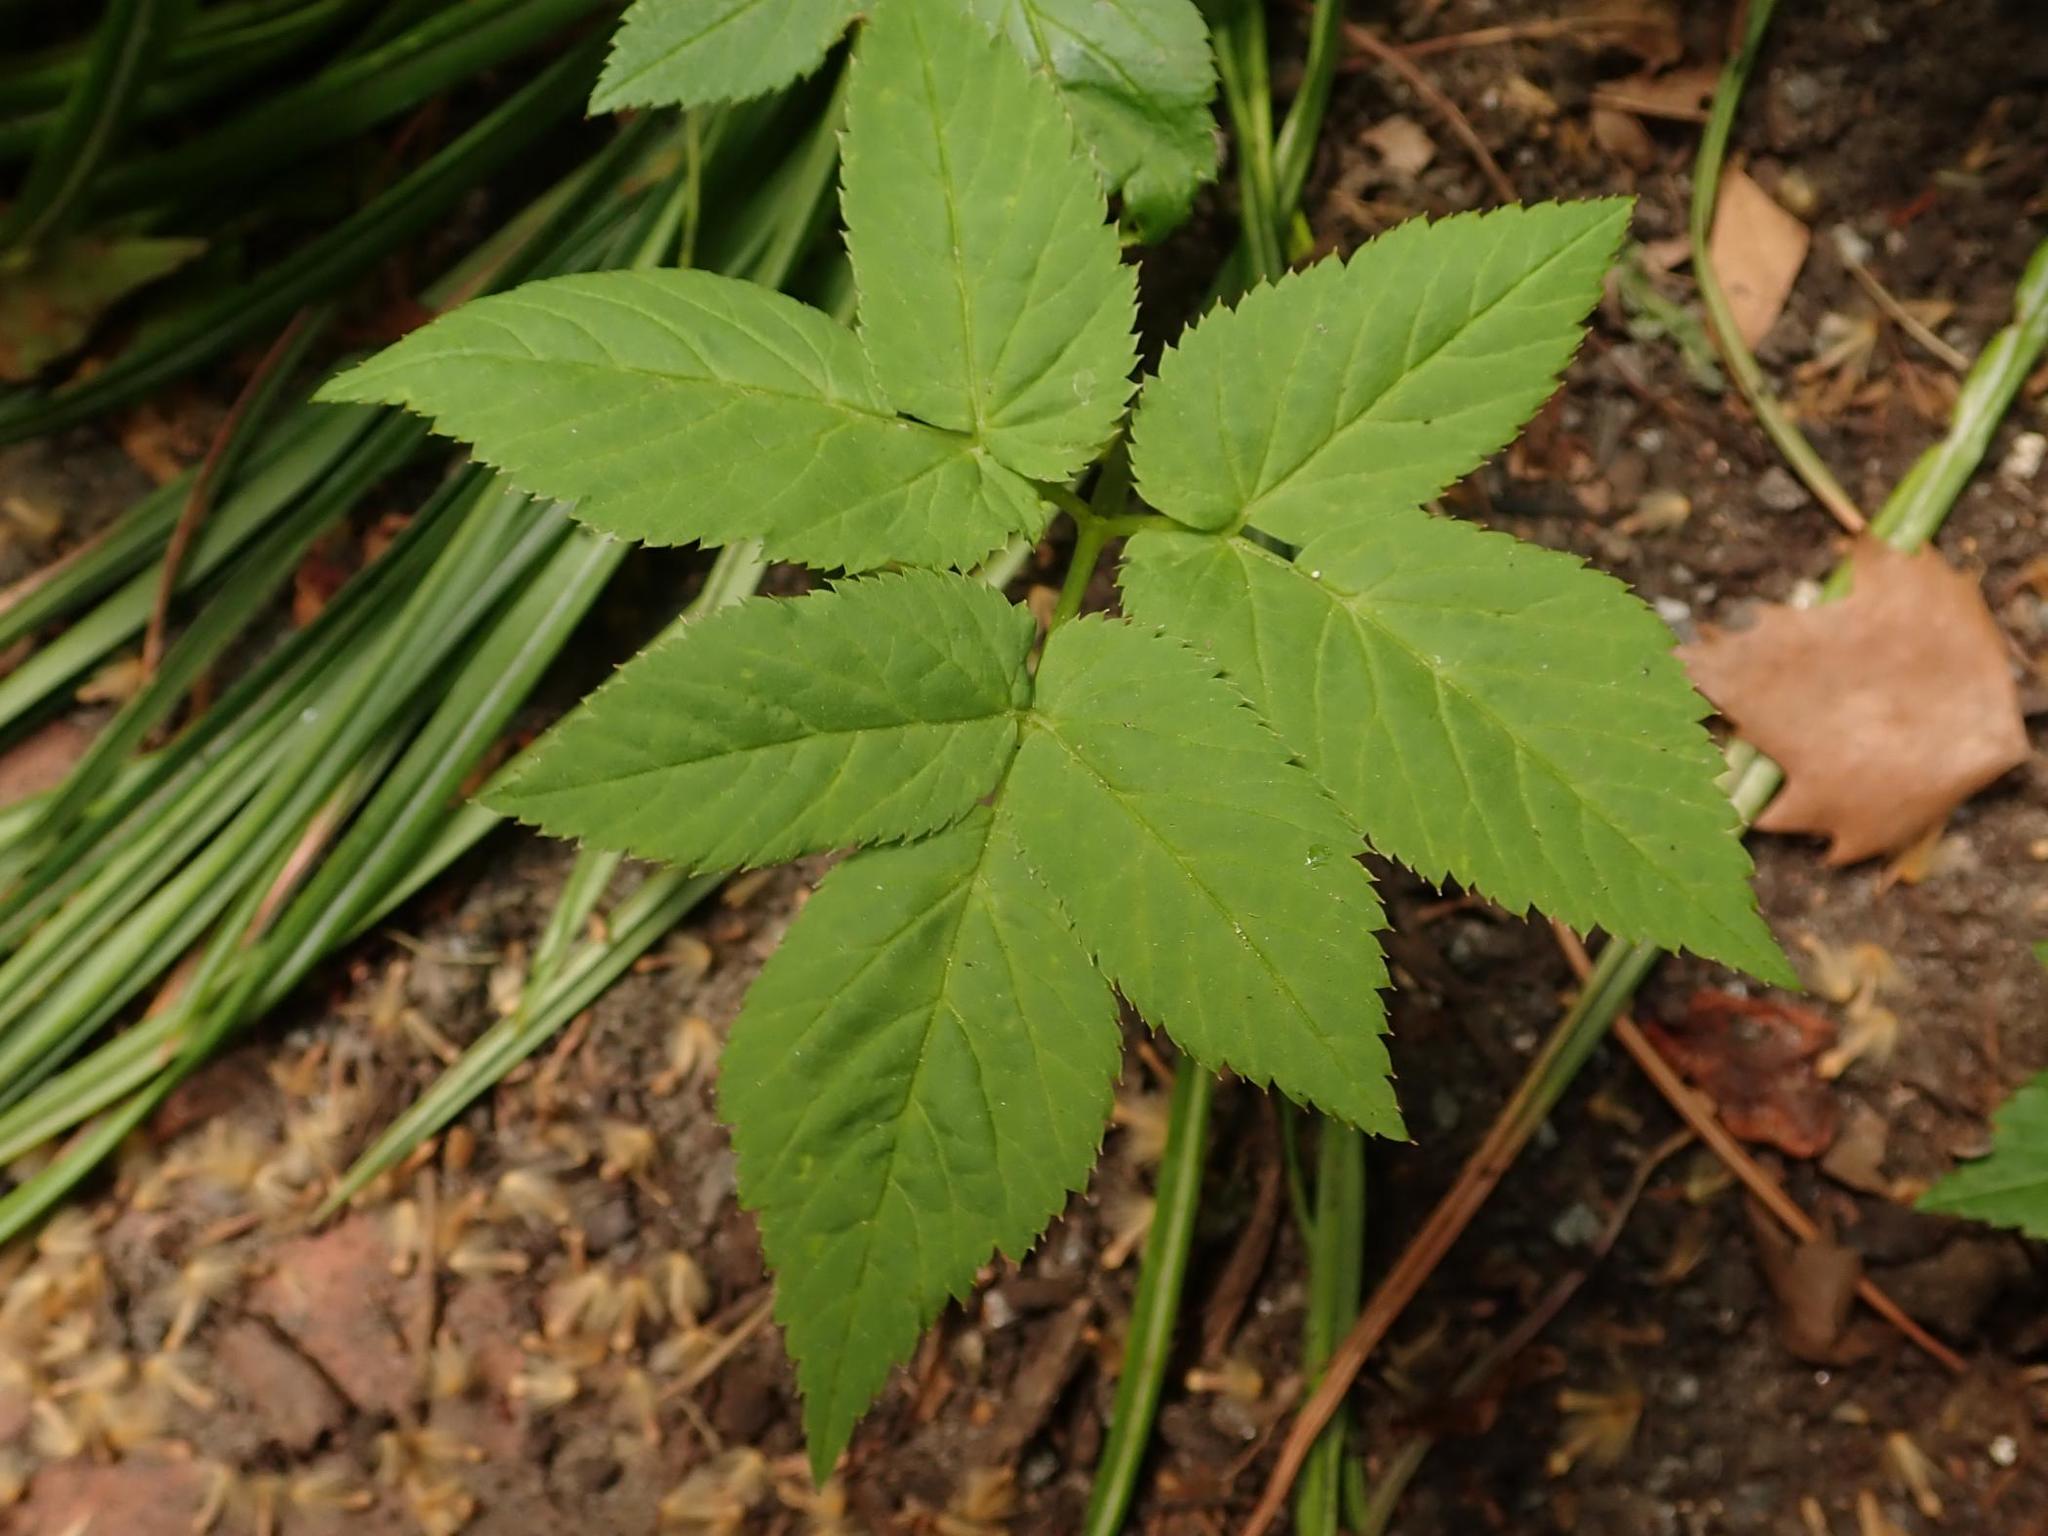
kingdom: Plantae
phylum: Tracheophyta
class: Magnoliopsida
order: Apiales
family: Apiaceae
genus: Aegopodium
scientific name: Aegopodium podagraria
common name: Ground-elder
